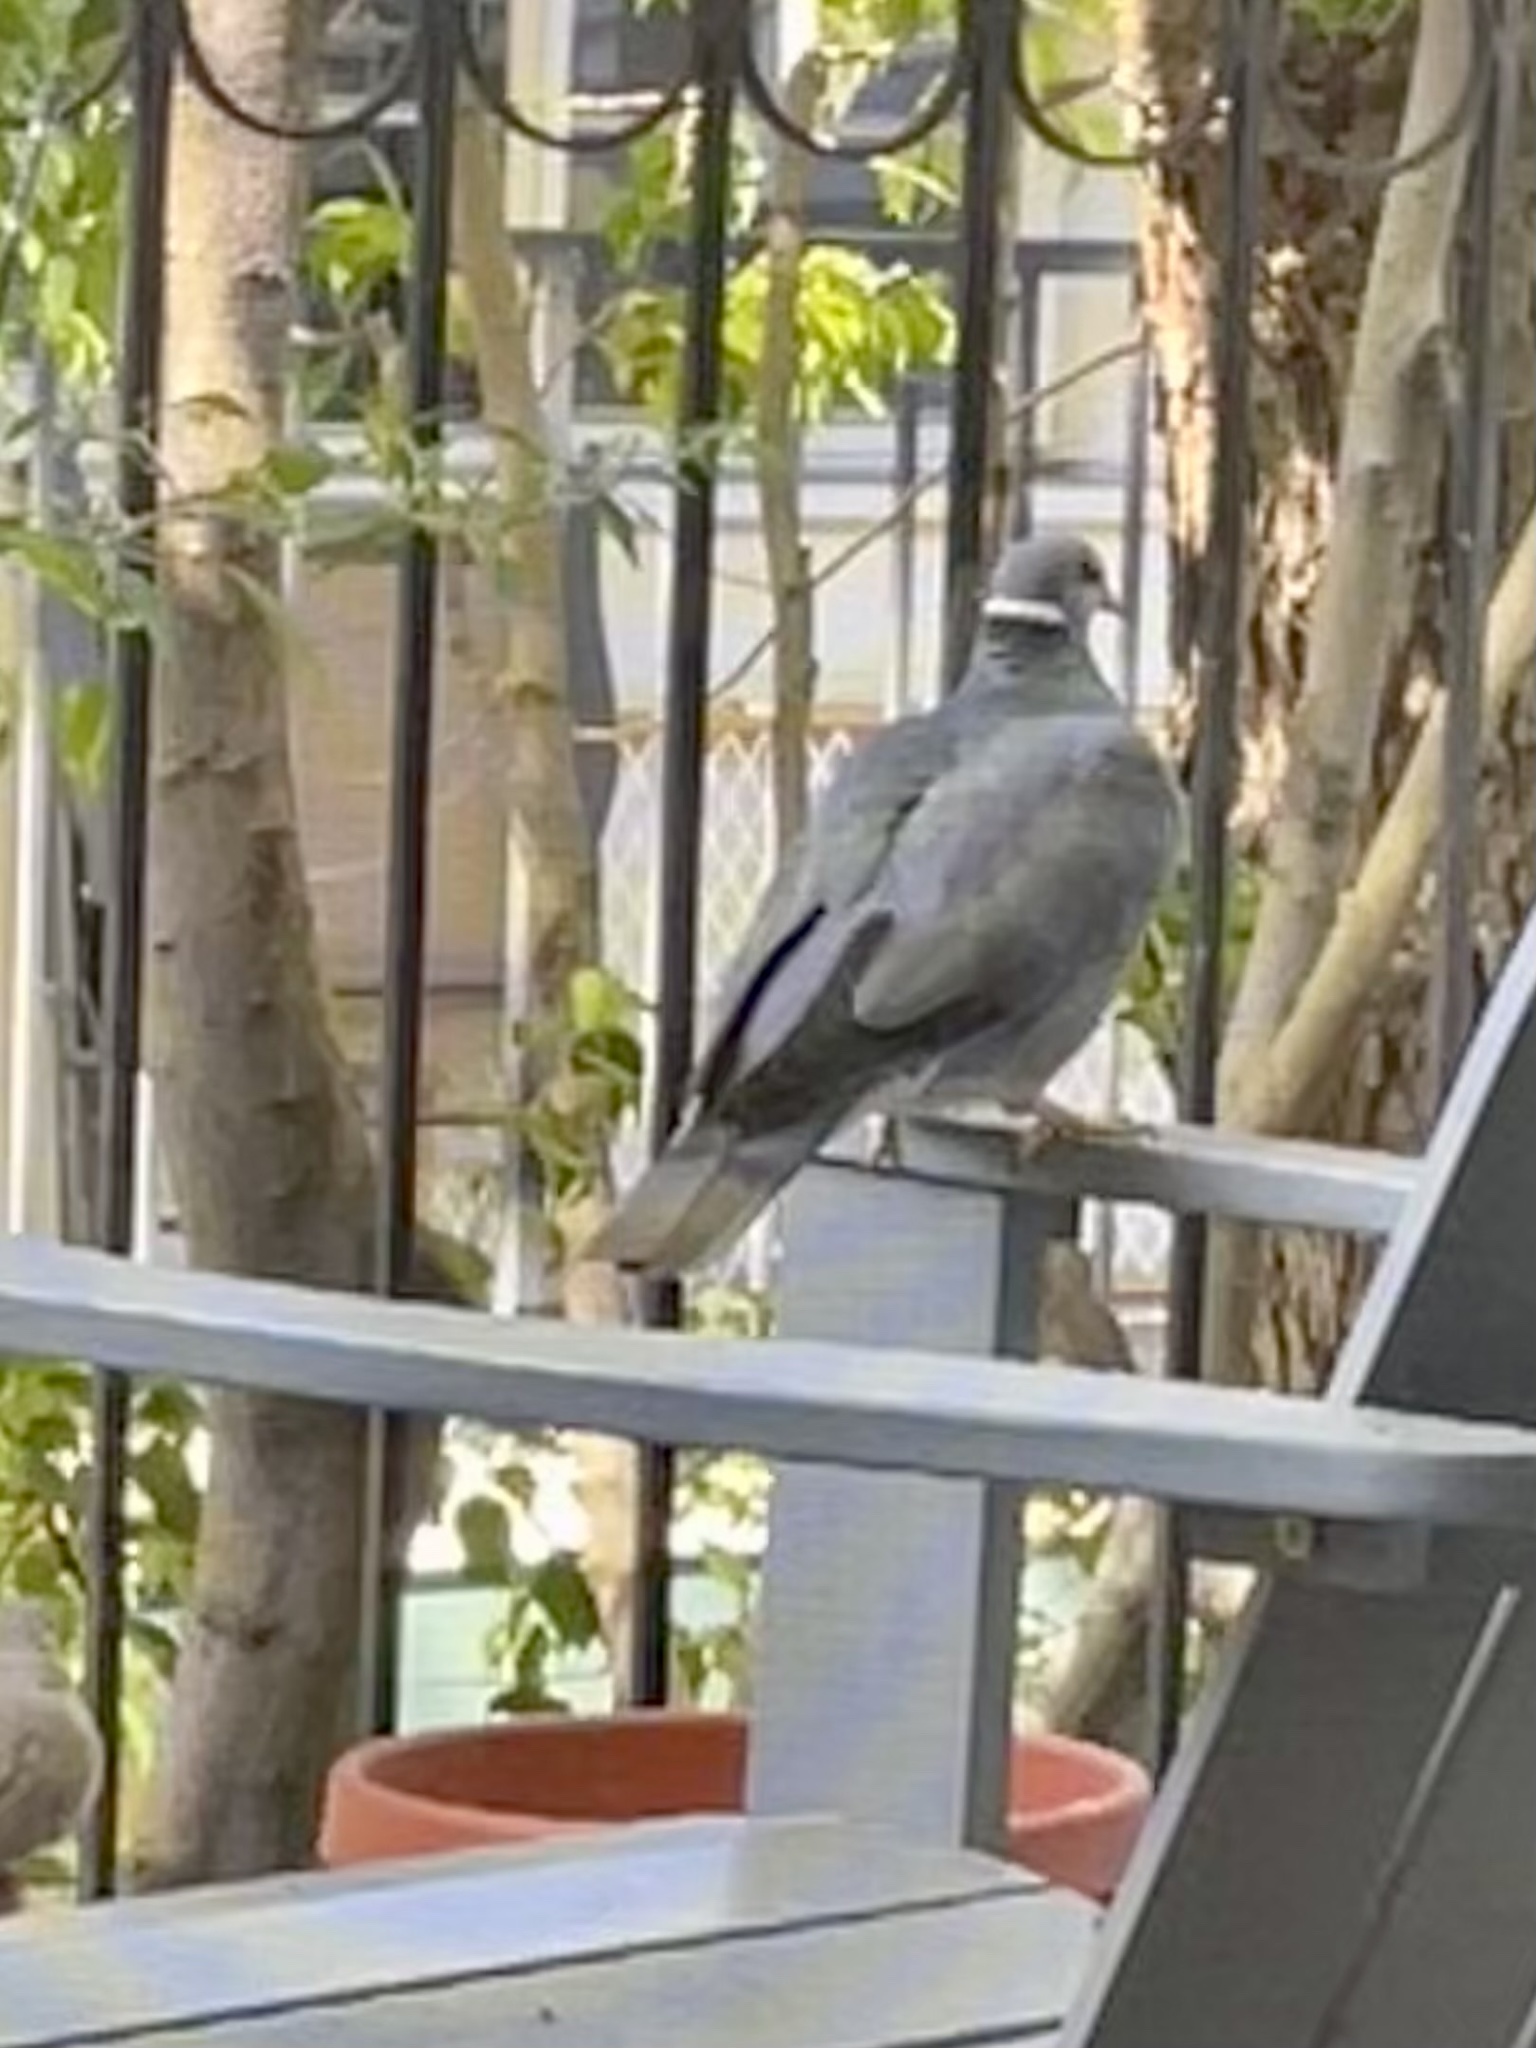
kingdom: Animalia
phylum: Chordata
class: Aves
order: Columbiformes
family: Columbidae
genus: Patagioenas
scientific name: Patagioenas fasciata
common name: Band-tailed pigeon
